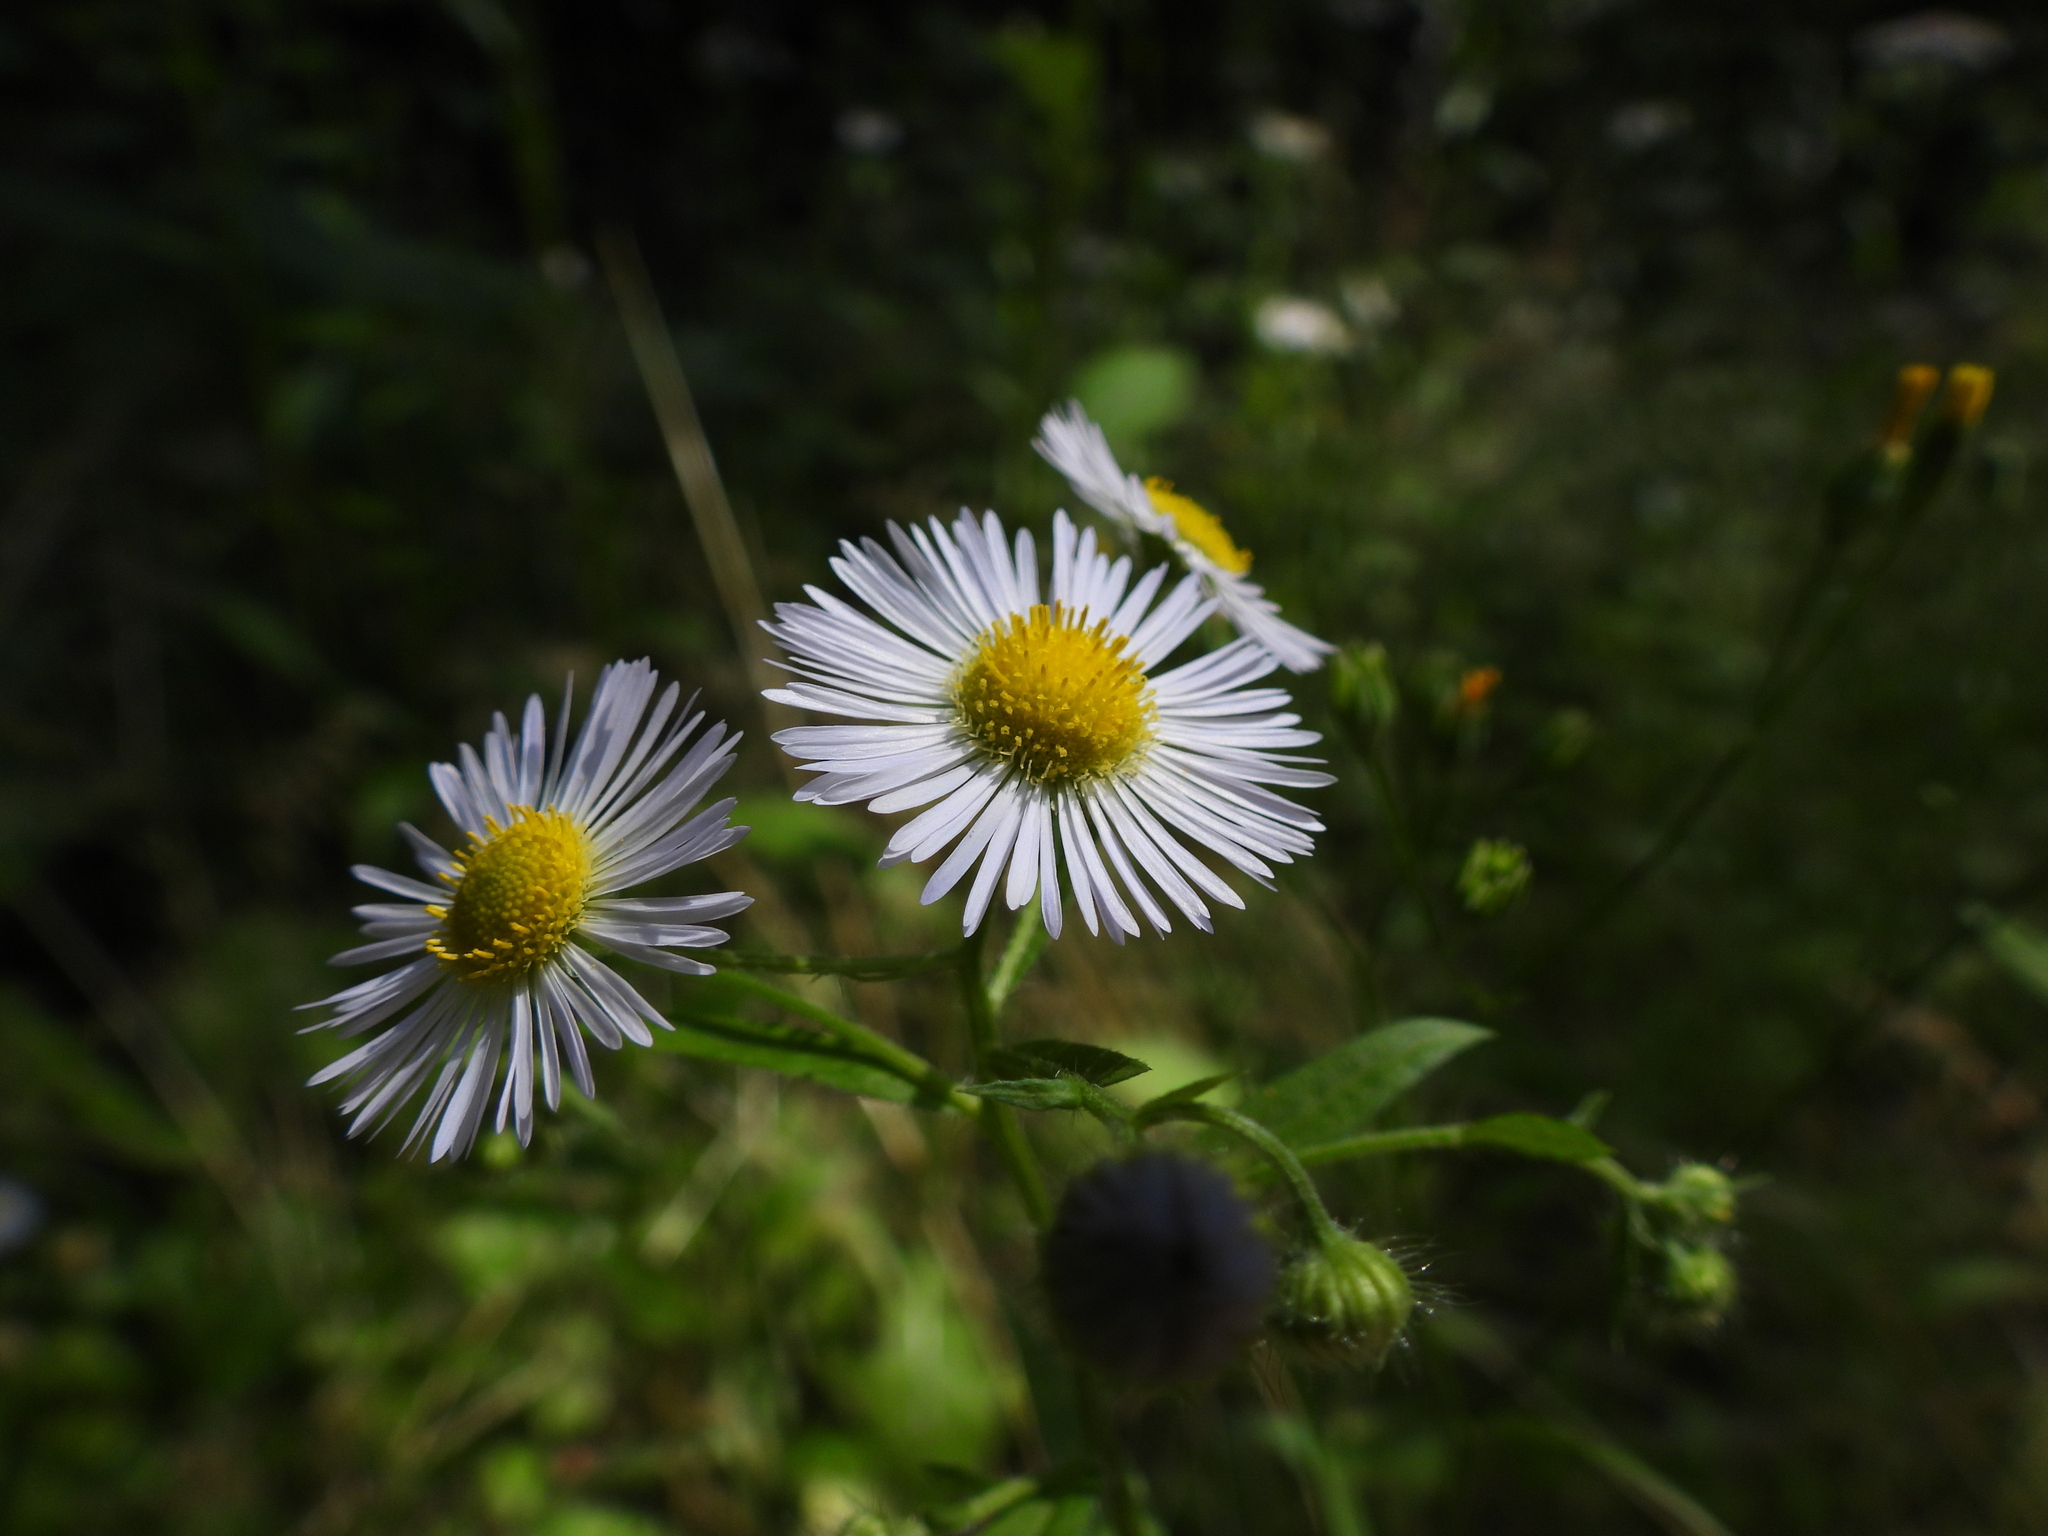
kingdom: Plantae
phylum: Tracheophyta
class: Magnoliopsida
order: Asterales
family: Asteraceae
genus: Erigeron
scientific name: Erigeron annuus
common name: Tall fleabane
